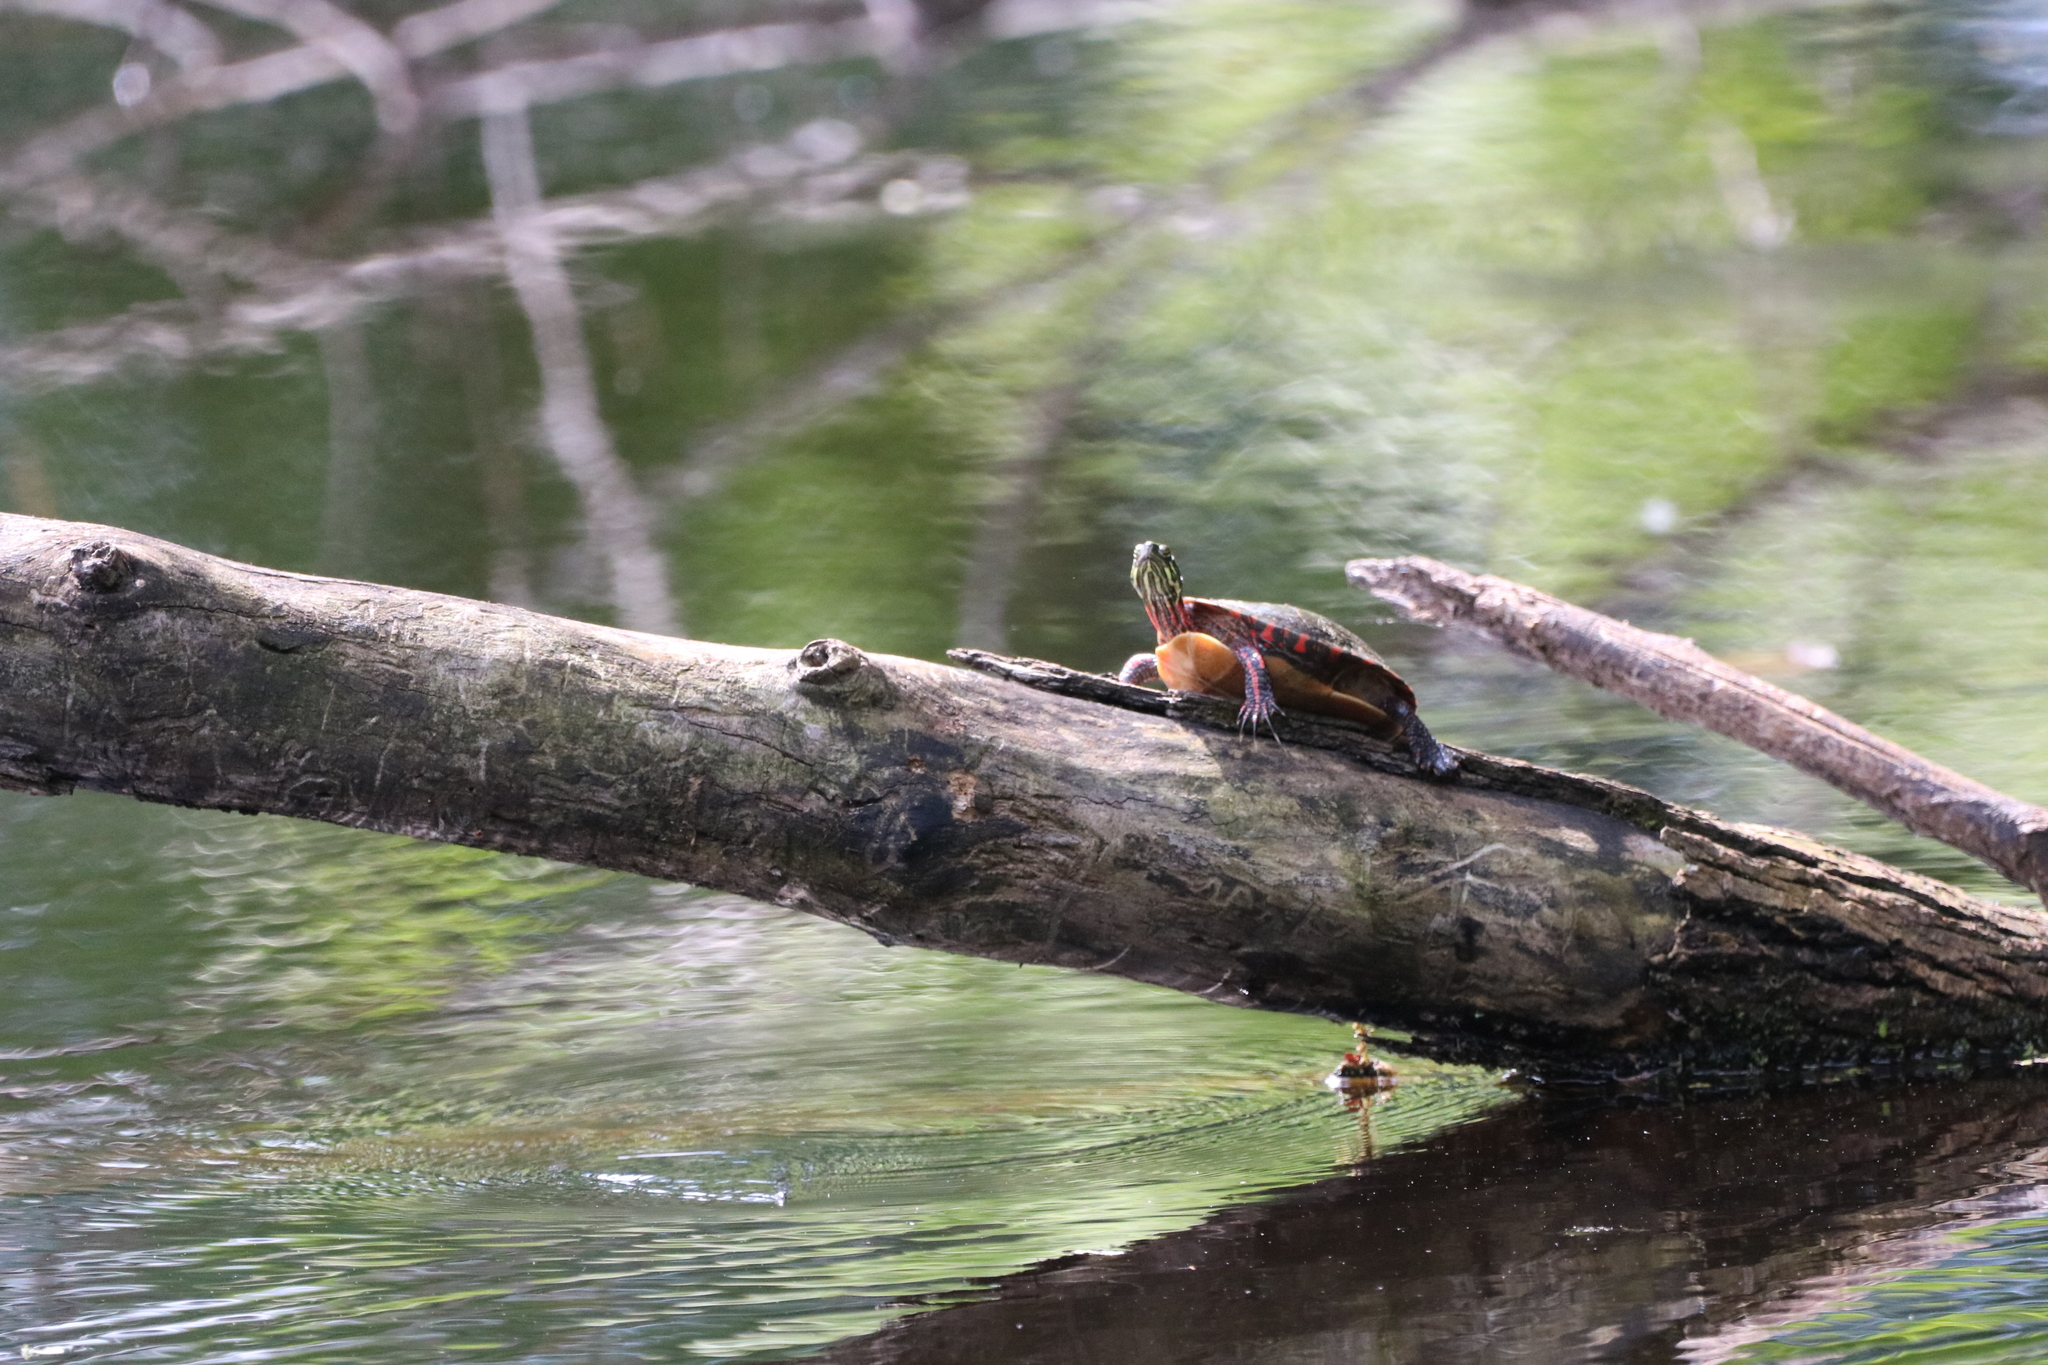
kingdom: Animalia
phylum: Chordata
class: Testudines
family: Emydidae
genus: Chrysemys
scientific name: Chrysemys picta
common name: Painted turtle
